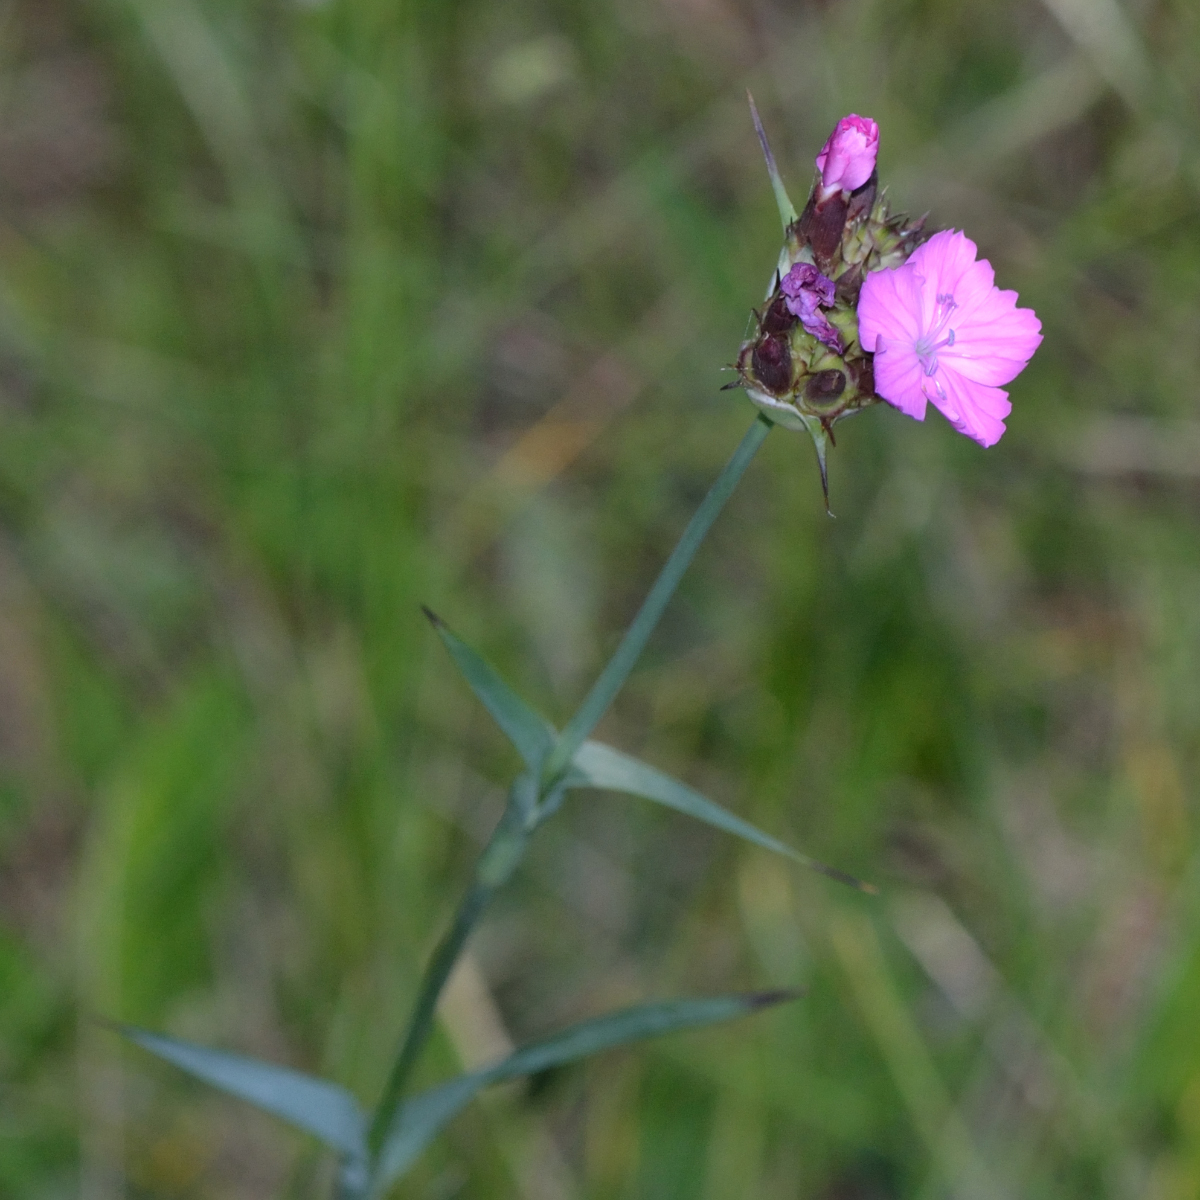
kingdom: Plantae
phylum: Tracheophyta
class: Magnoliopsida
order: Caryophyllales
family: Caryophyllaceae
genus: Dianthus
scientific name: Dianthus capitatus
